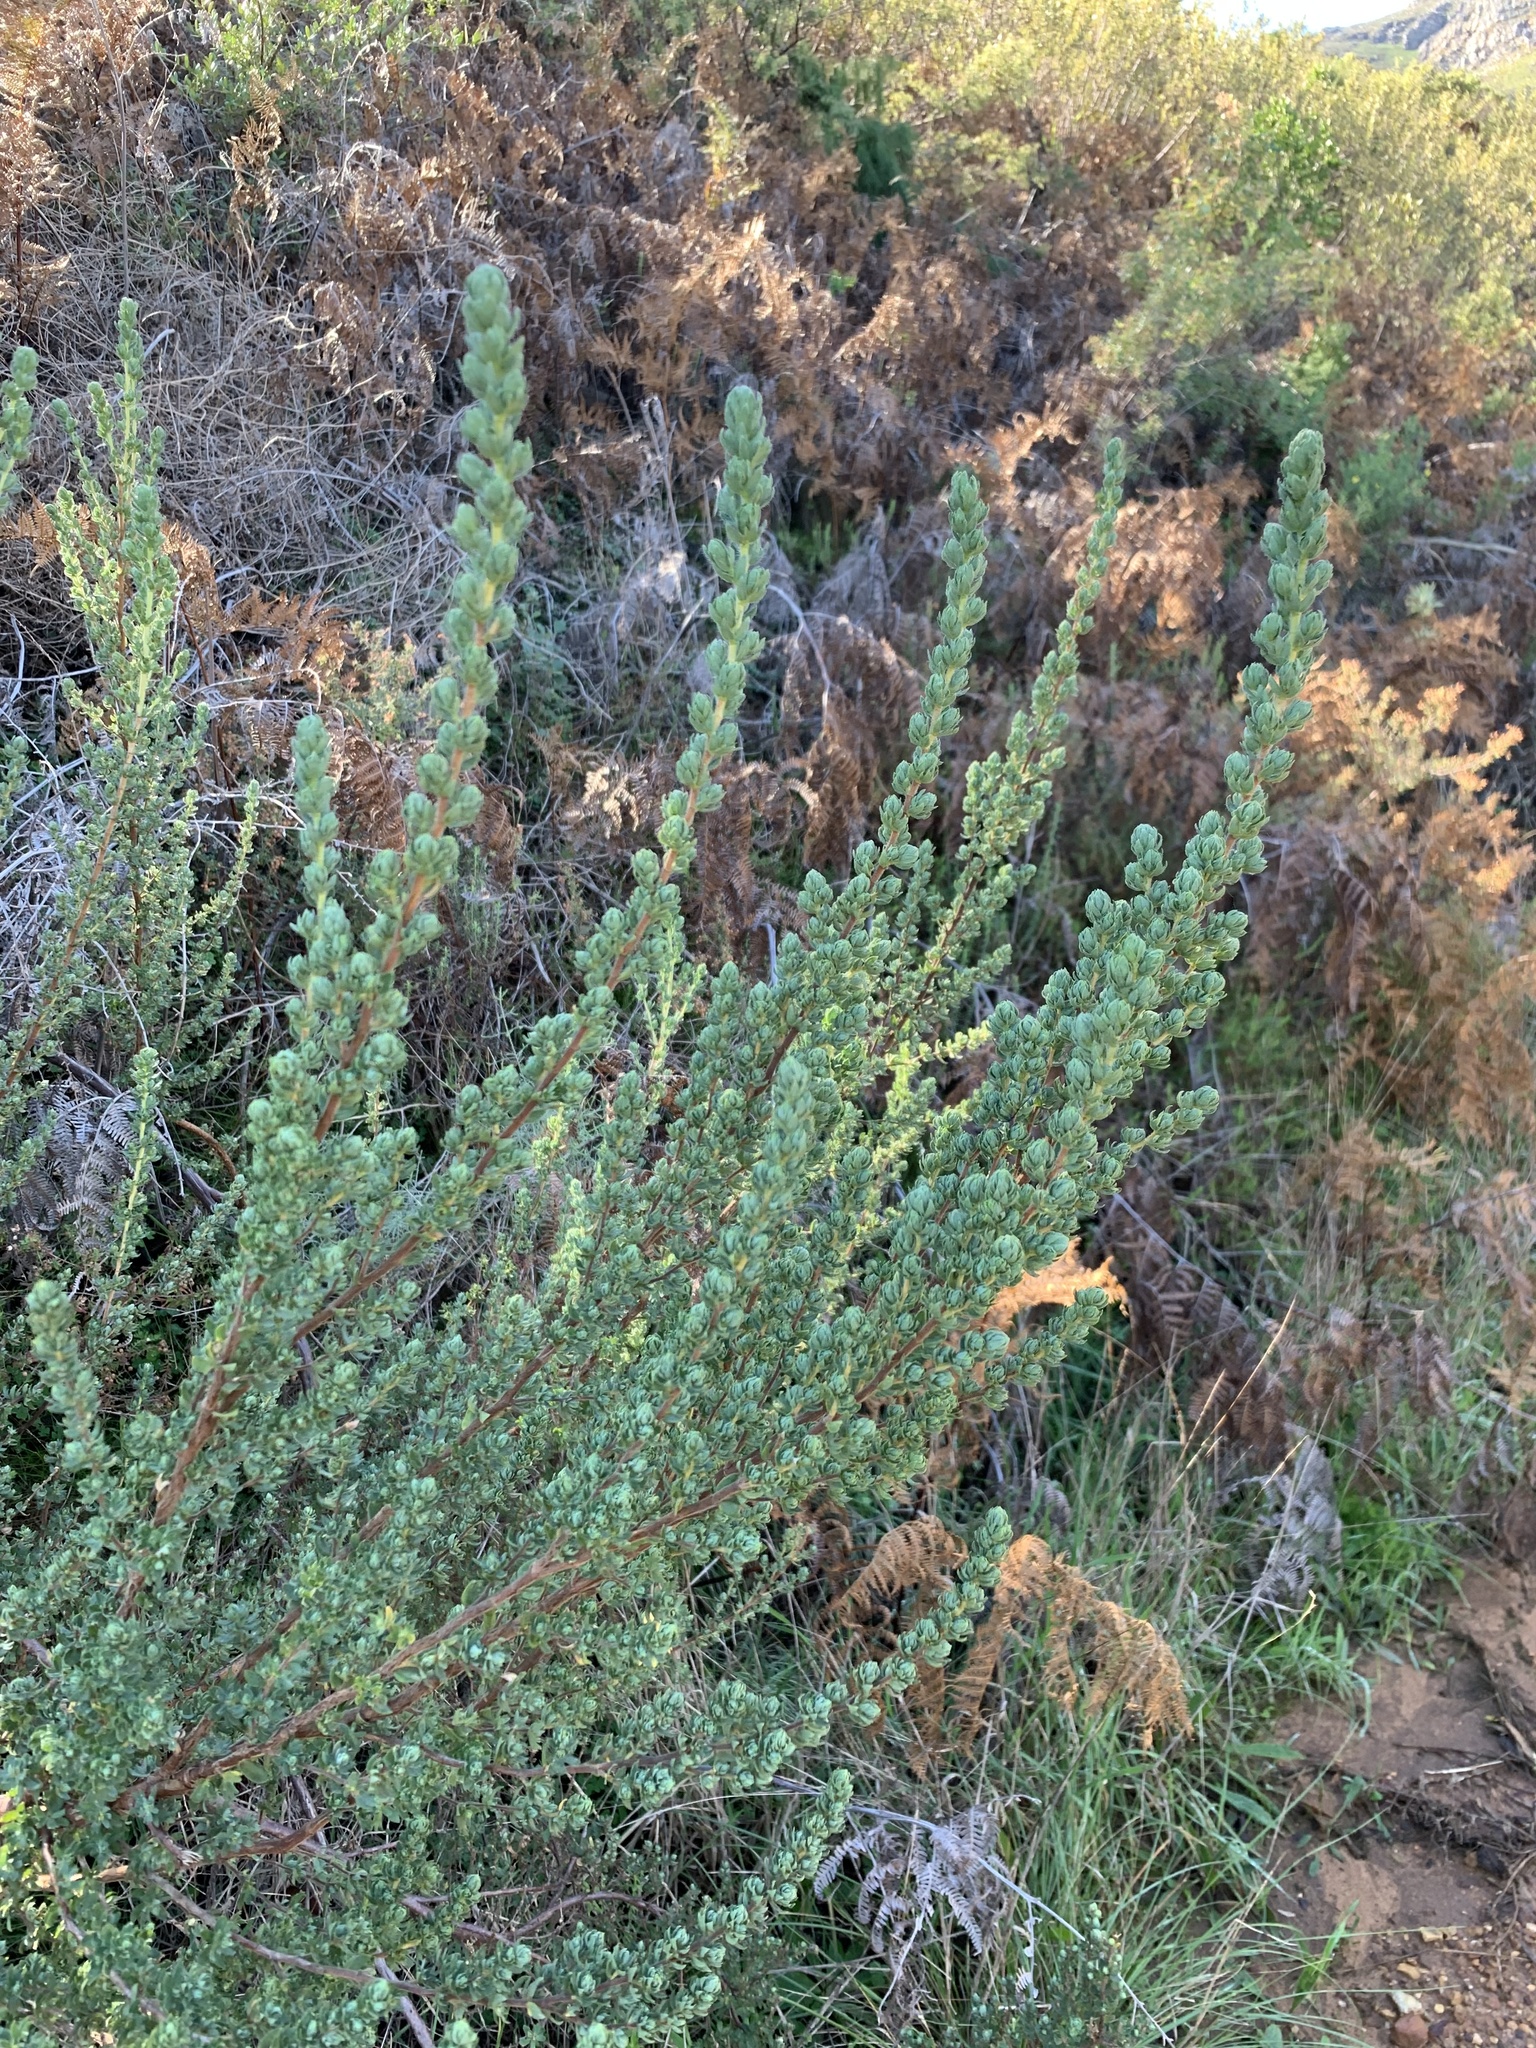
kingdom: Plantae
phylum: Tracheophyta
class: Magnoliopsida
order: Rosales
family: Rosaceae
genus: Cliffortia
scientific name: Cliffortia polygonifolia
